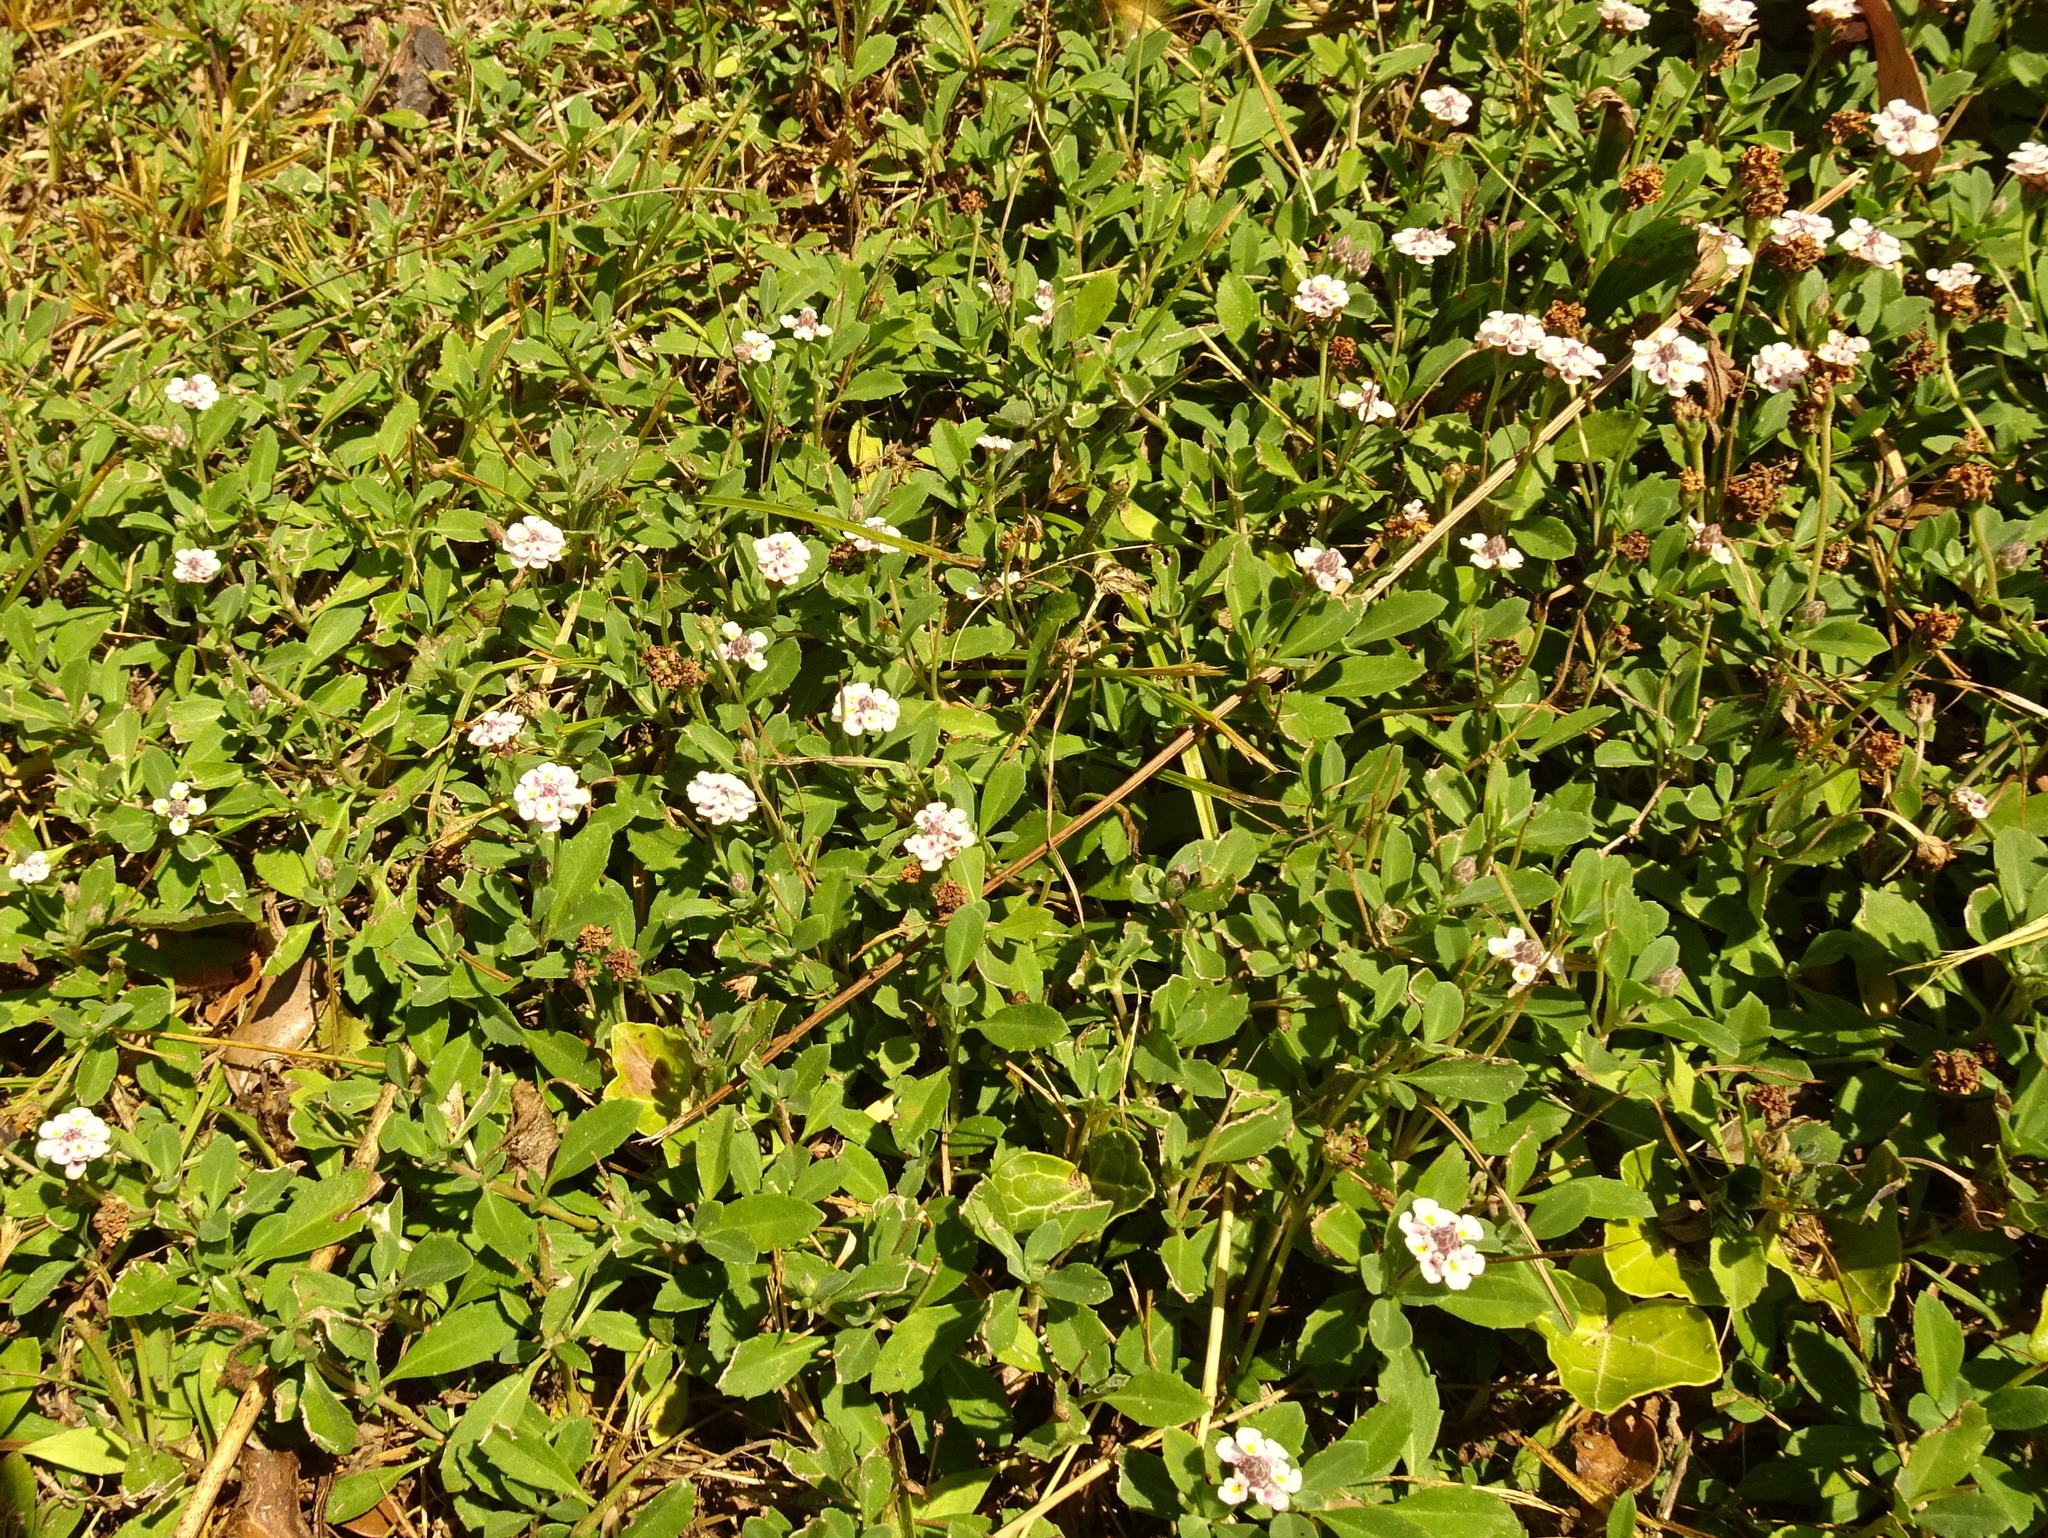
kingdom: Plantae
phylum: Tracheophyta
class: Magnoliopsida
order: Lamiales
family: Verbenaceae
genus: Phyla
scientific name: Phyla nodiflora
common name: Frogfruit
